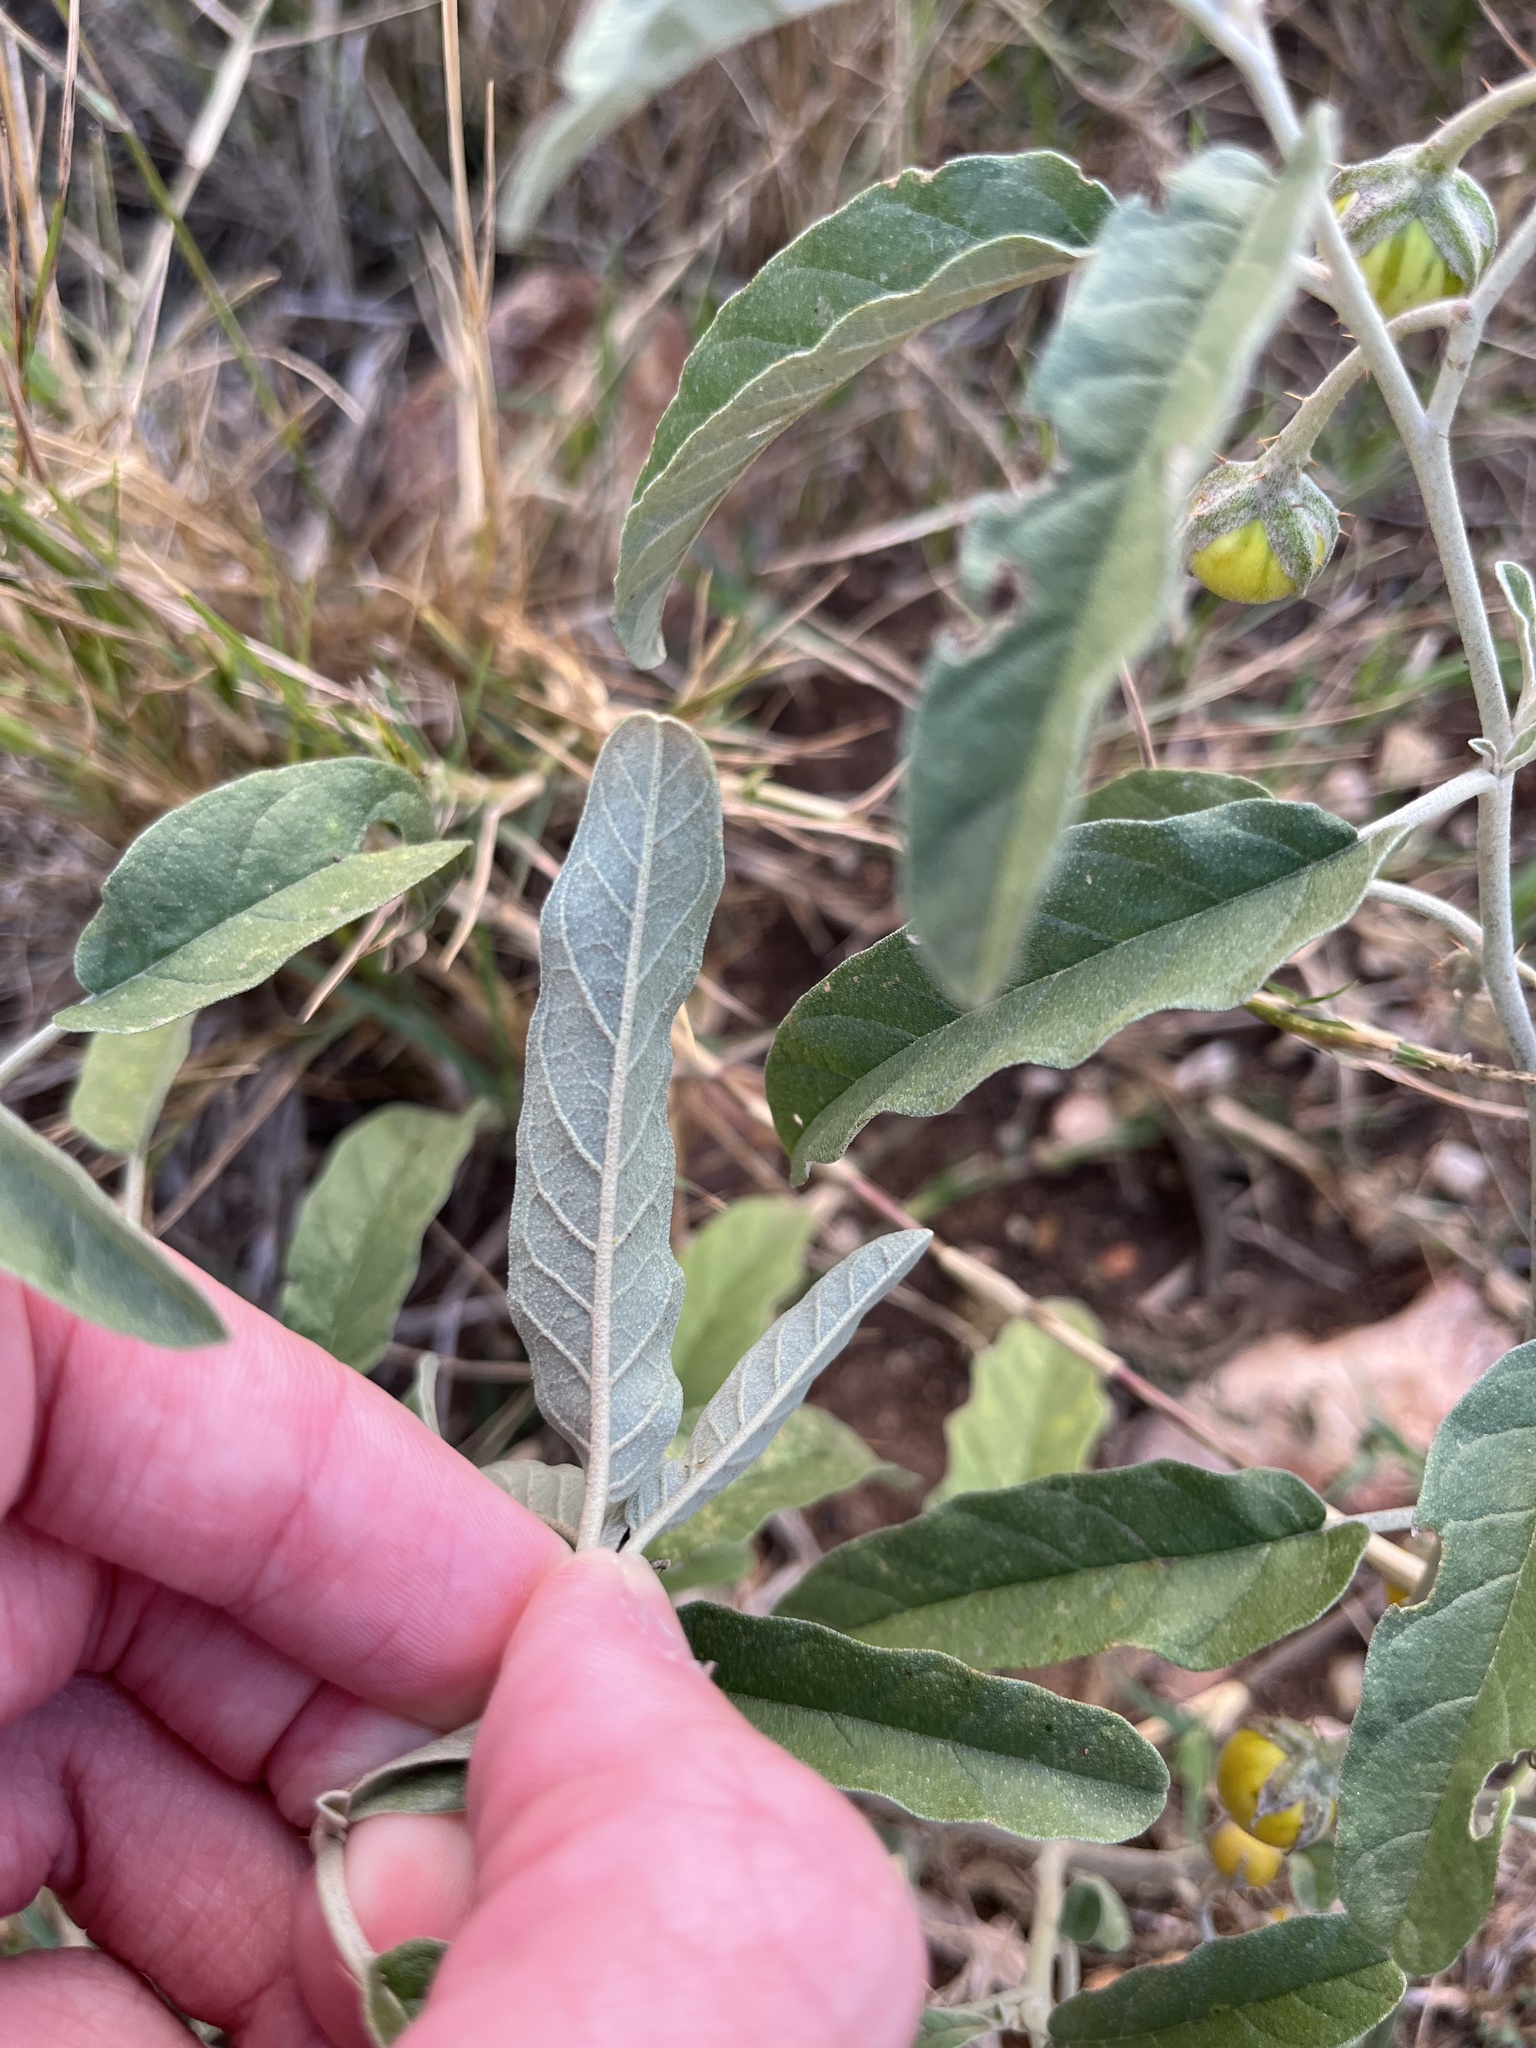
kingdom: Plantae
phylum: Tracheophyta
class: Magnoliopsida
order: Solanales
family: Solanaceae
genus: Solanum
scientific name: Solanum elaeagnifolium
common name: Silverleaf nightshade
